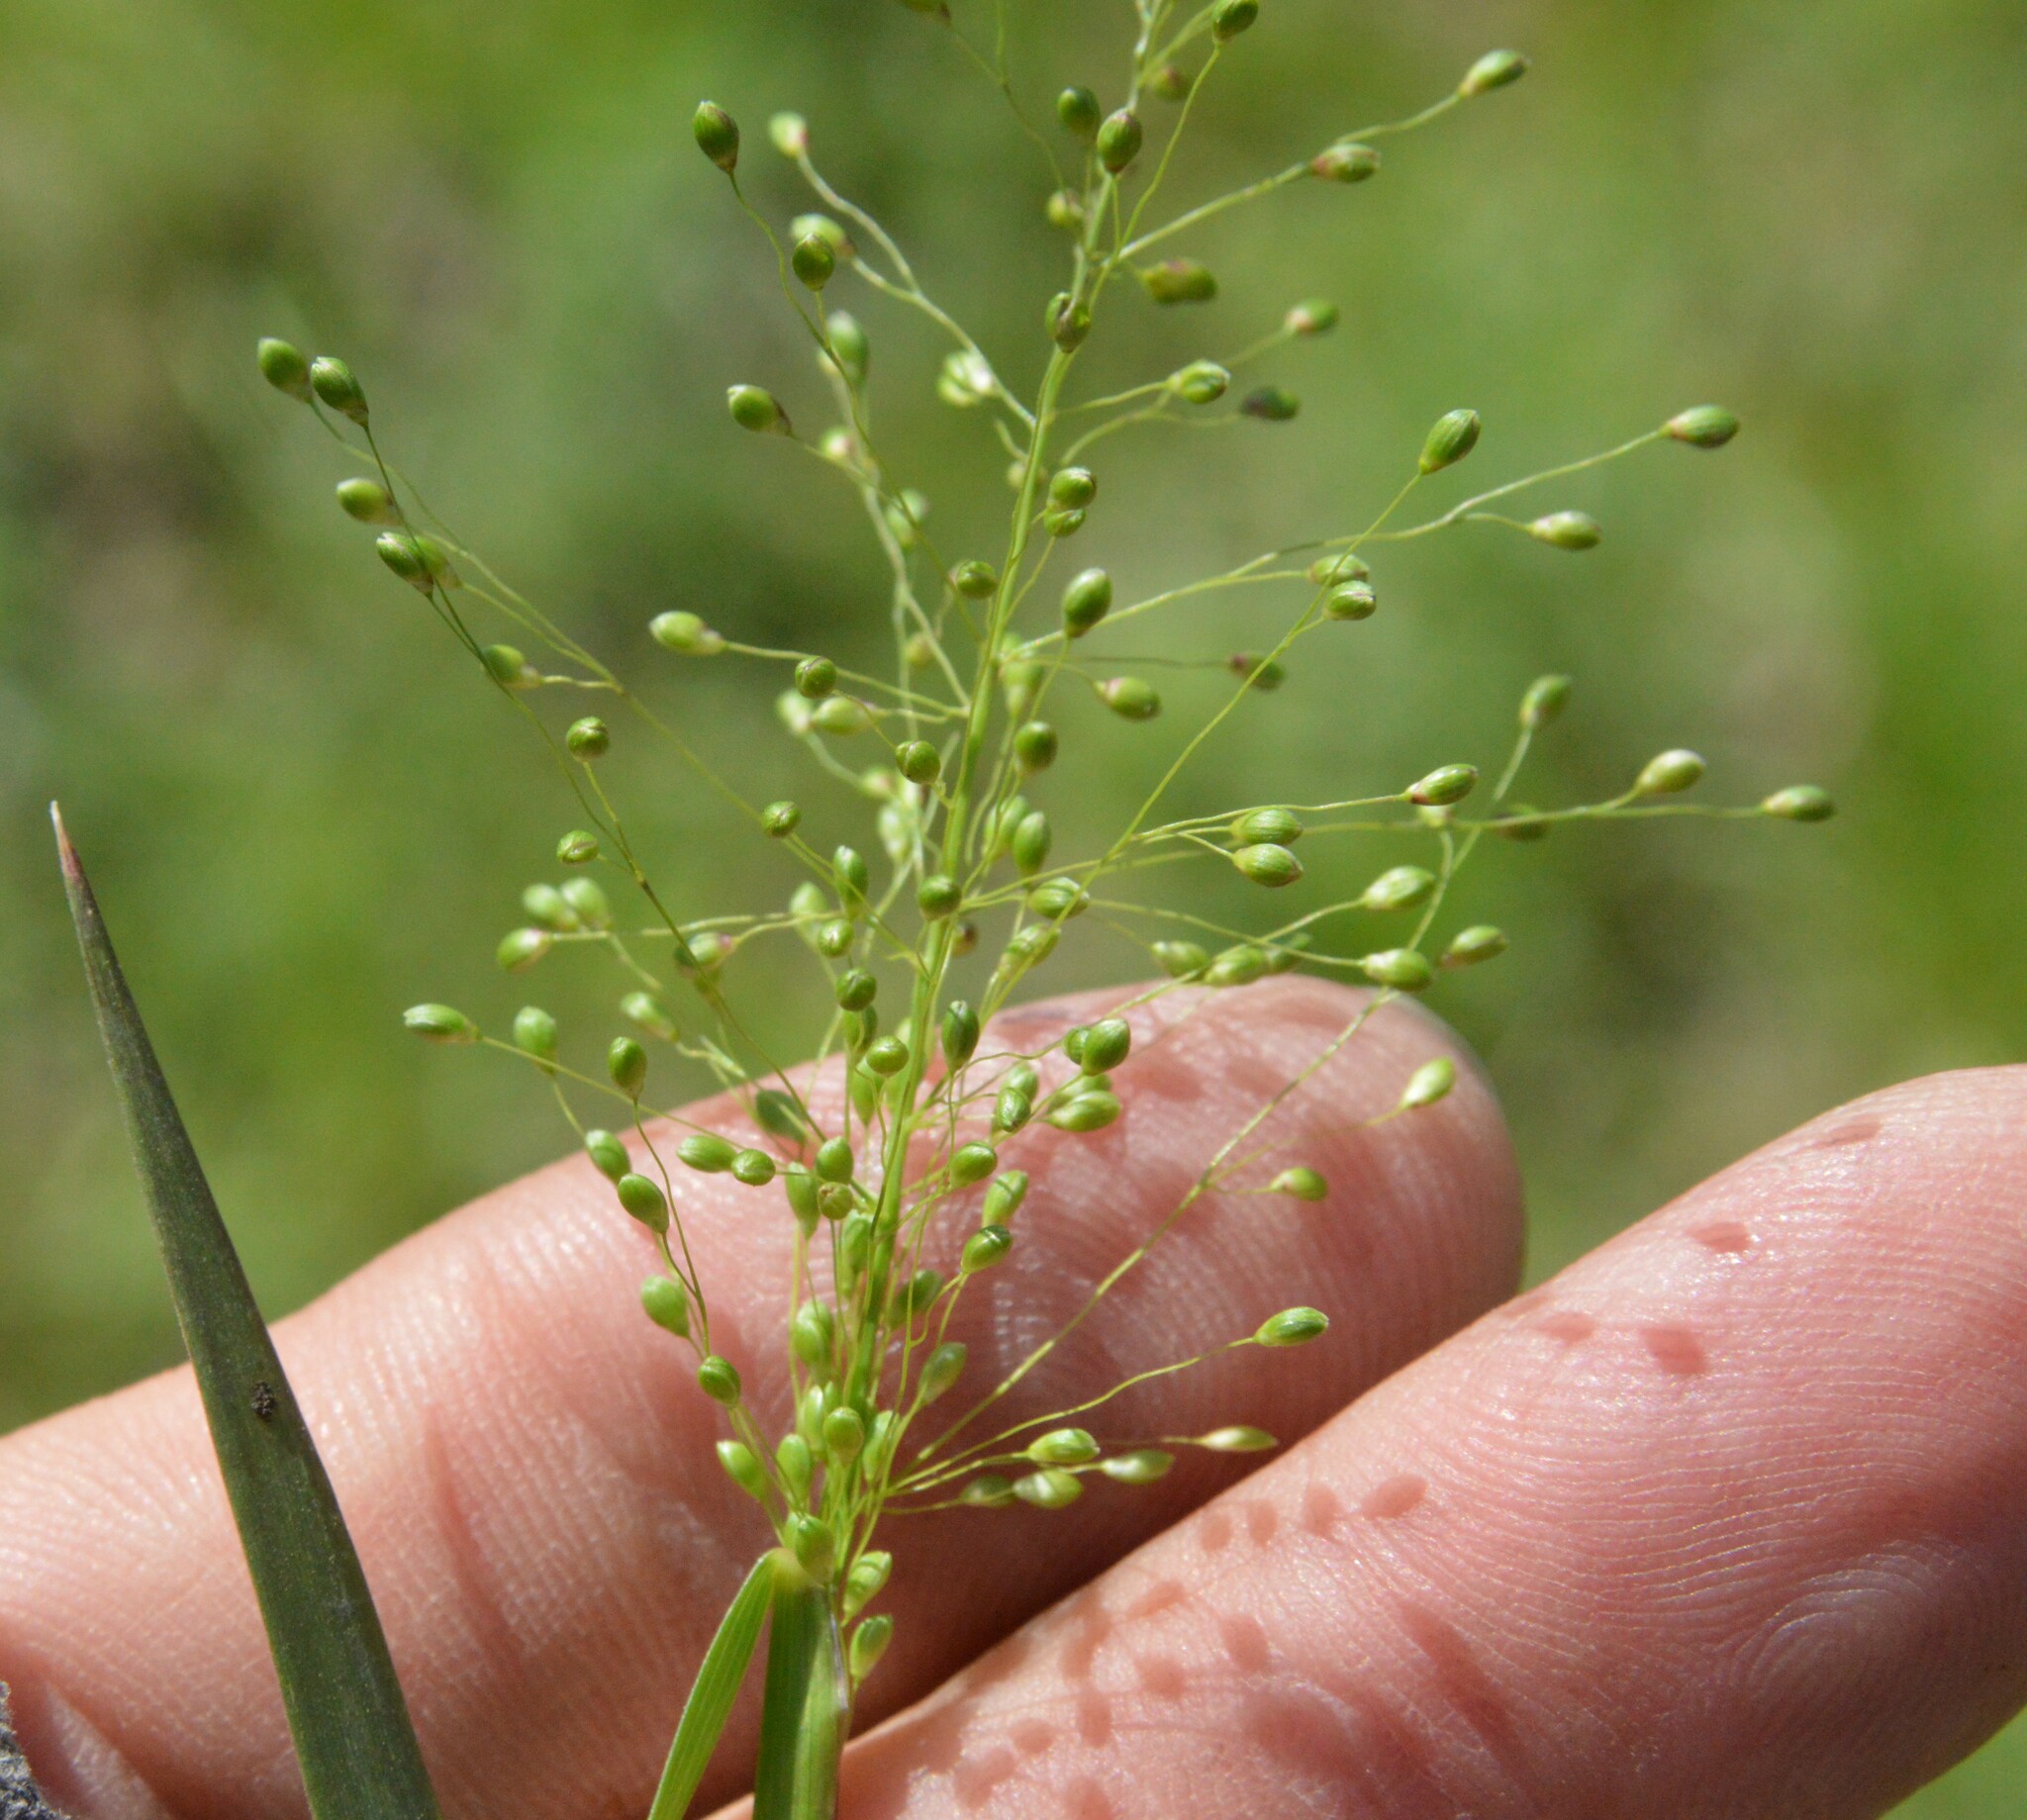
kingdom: Plantae
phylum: Tracheophyta
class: Liliopsida
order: Poales
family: Poaceae
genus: Dichanthelium
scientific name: Dichanthelium roanokense
